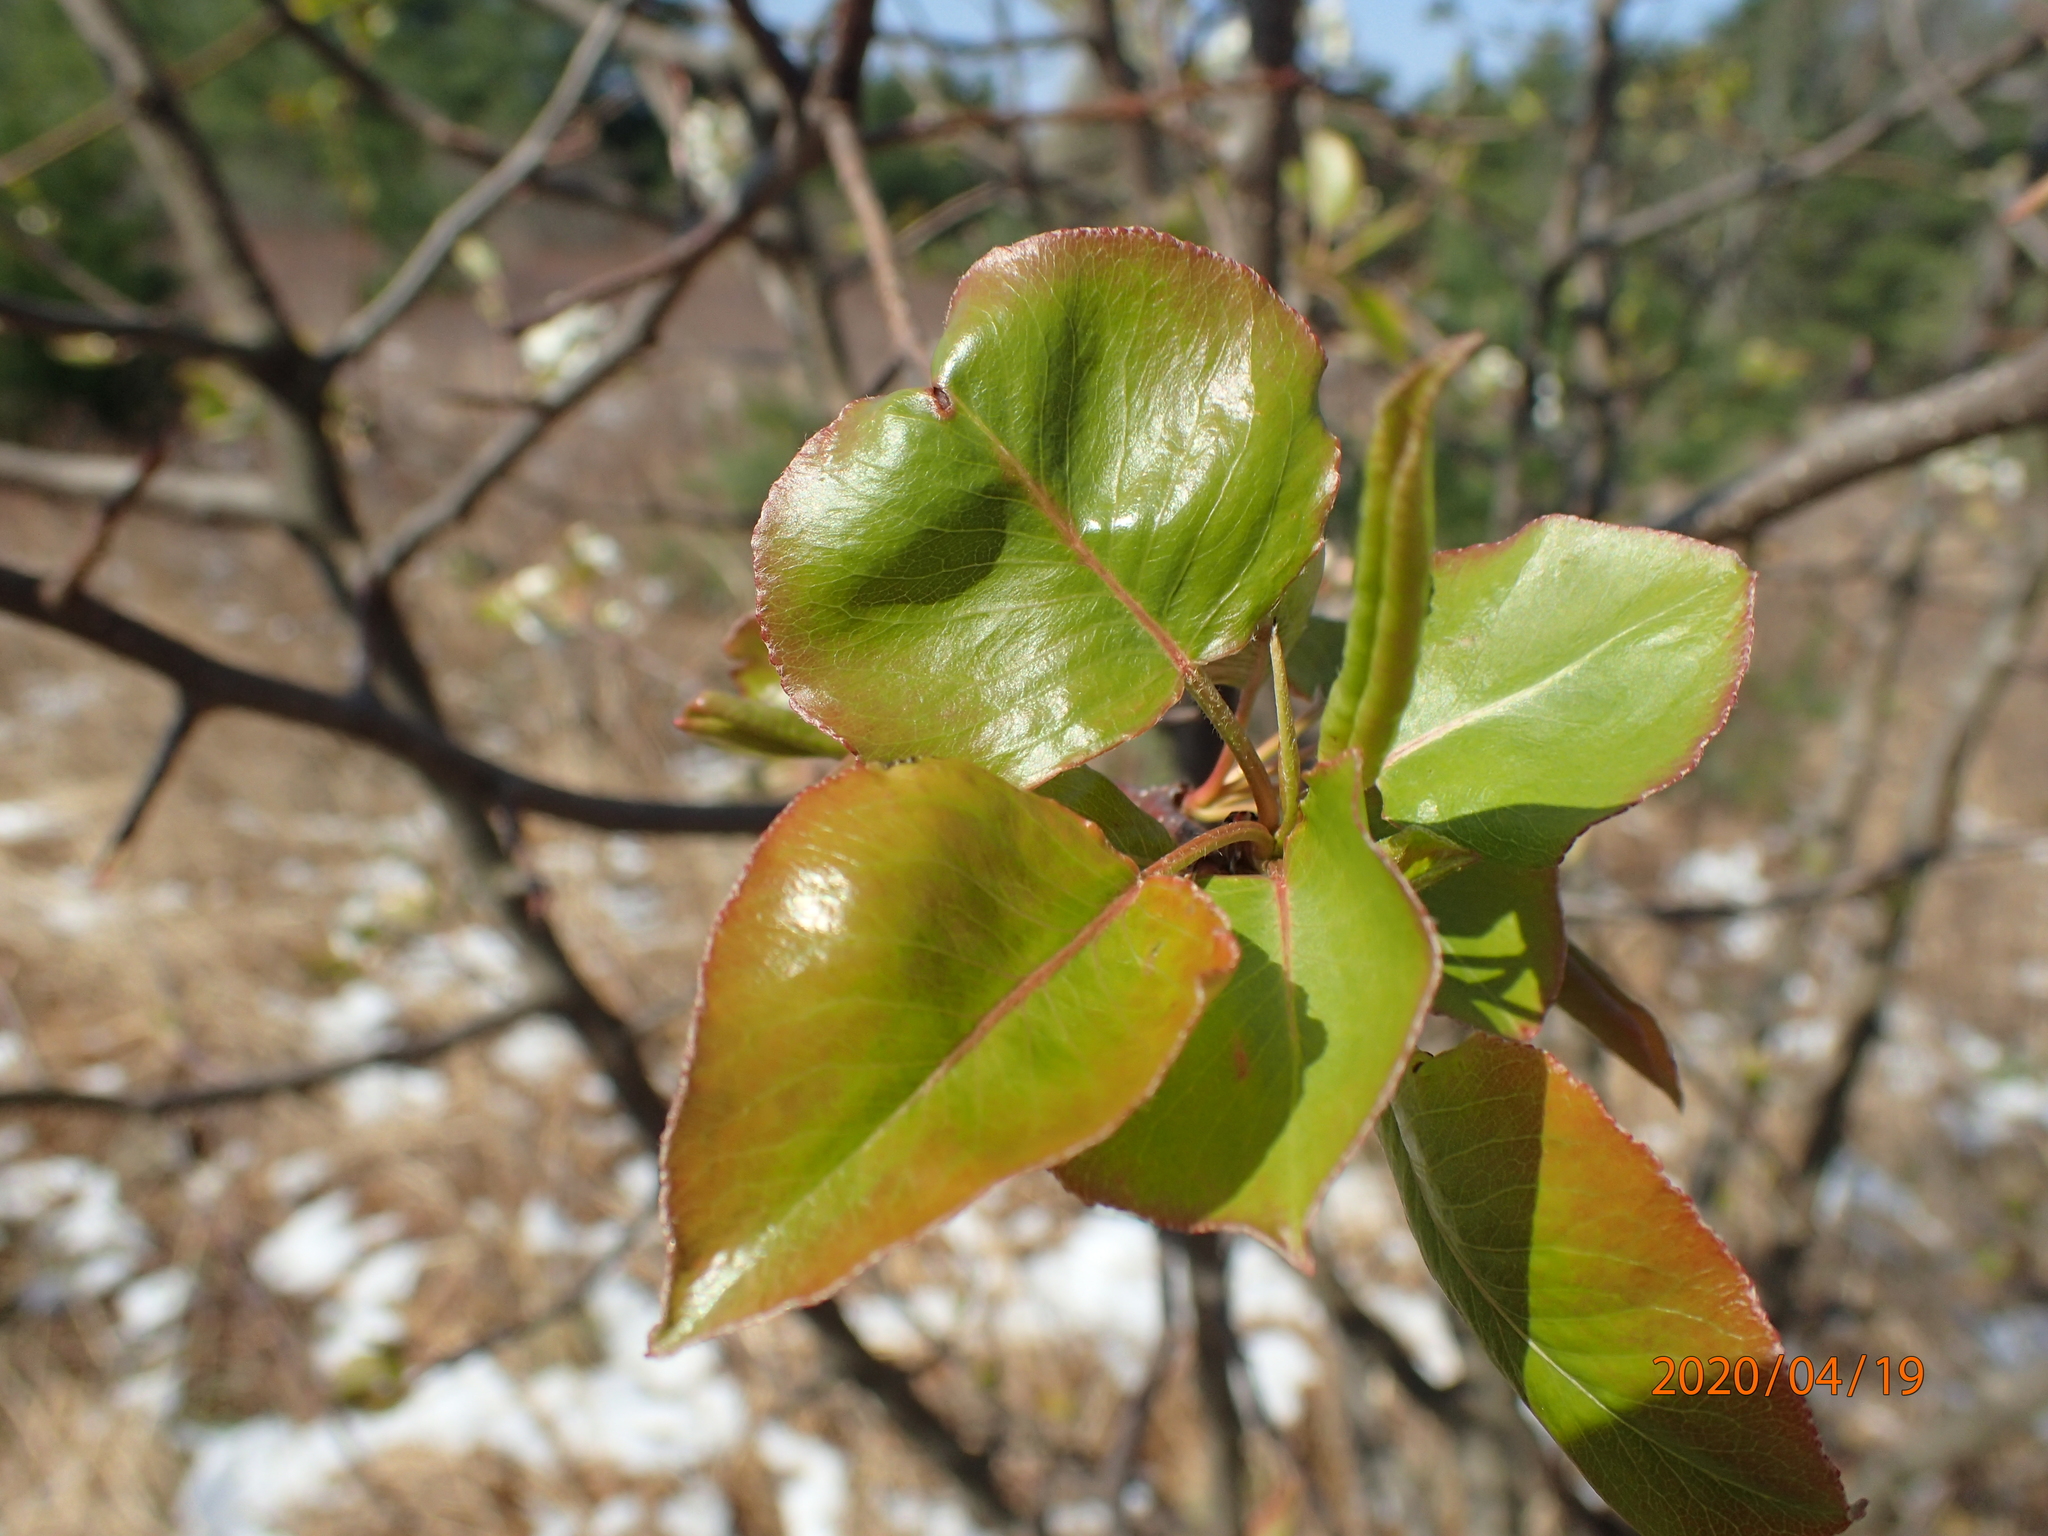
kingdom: Plantae
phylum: Tracheophyta
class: Magnoliopsida
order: Rosales
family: Rosaceae
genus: Pyrus
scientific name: Pyrus calleryana
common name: Callery pear
